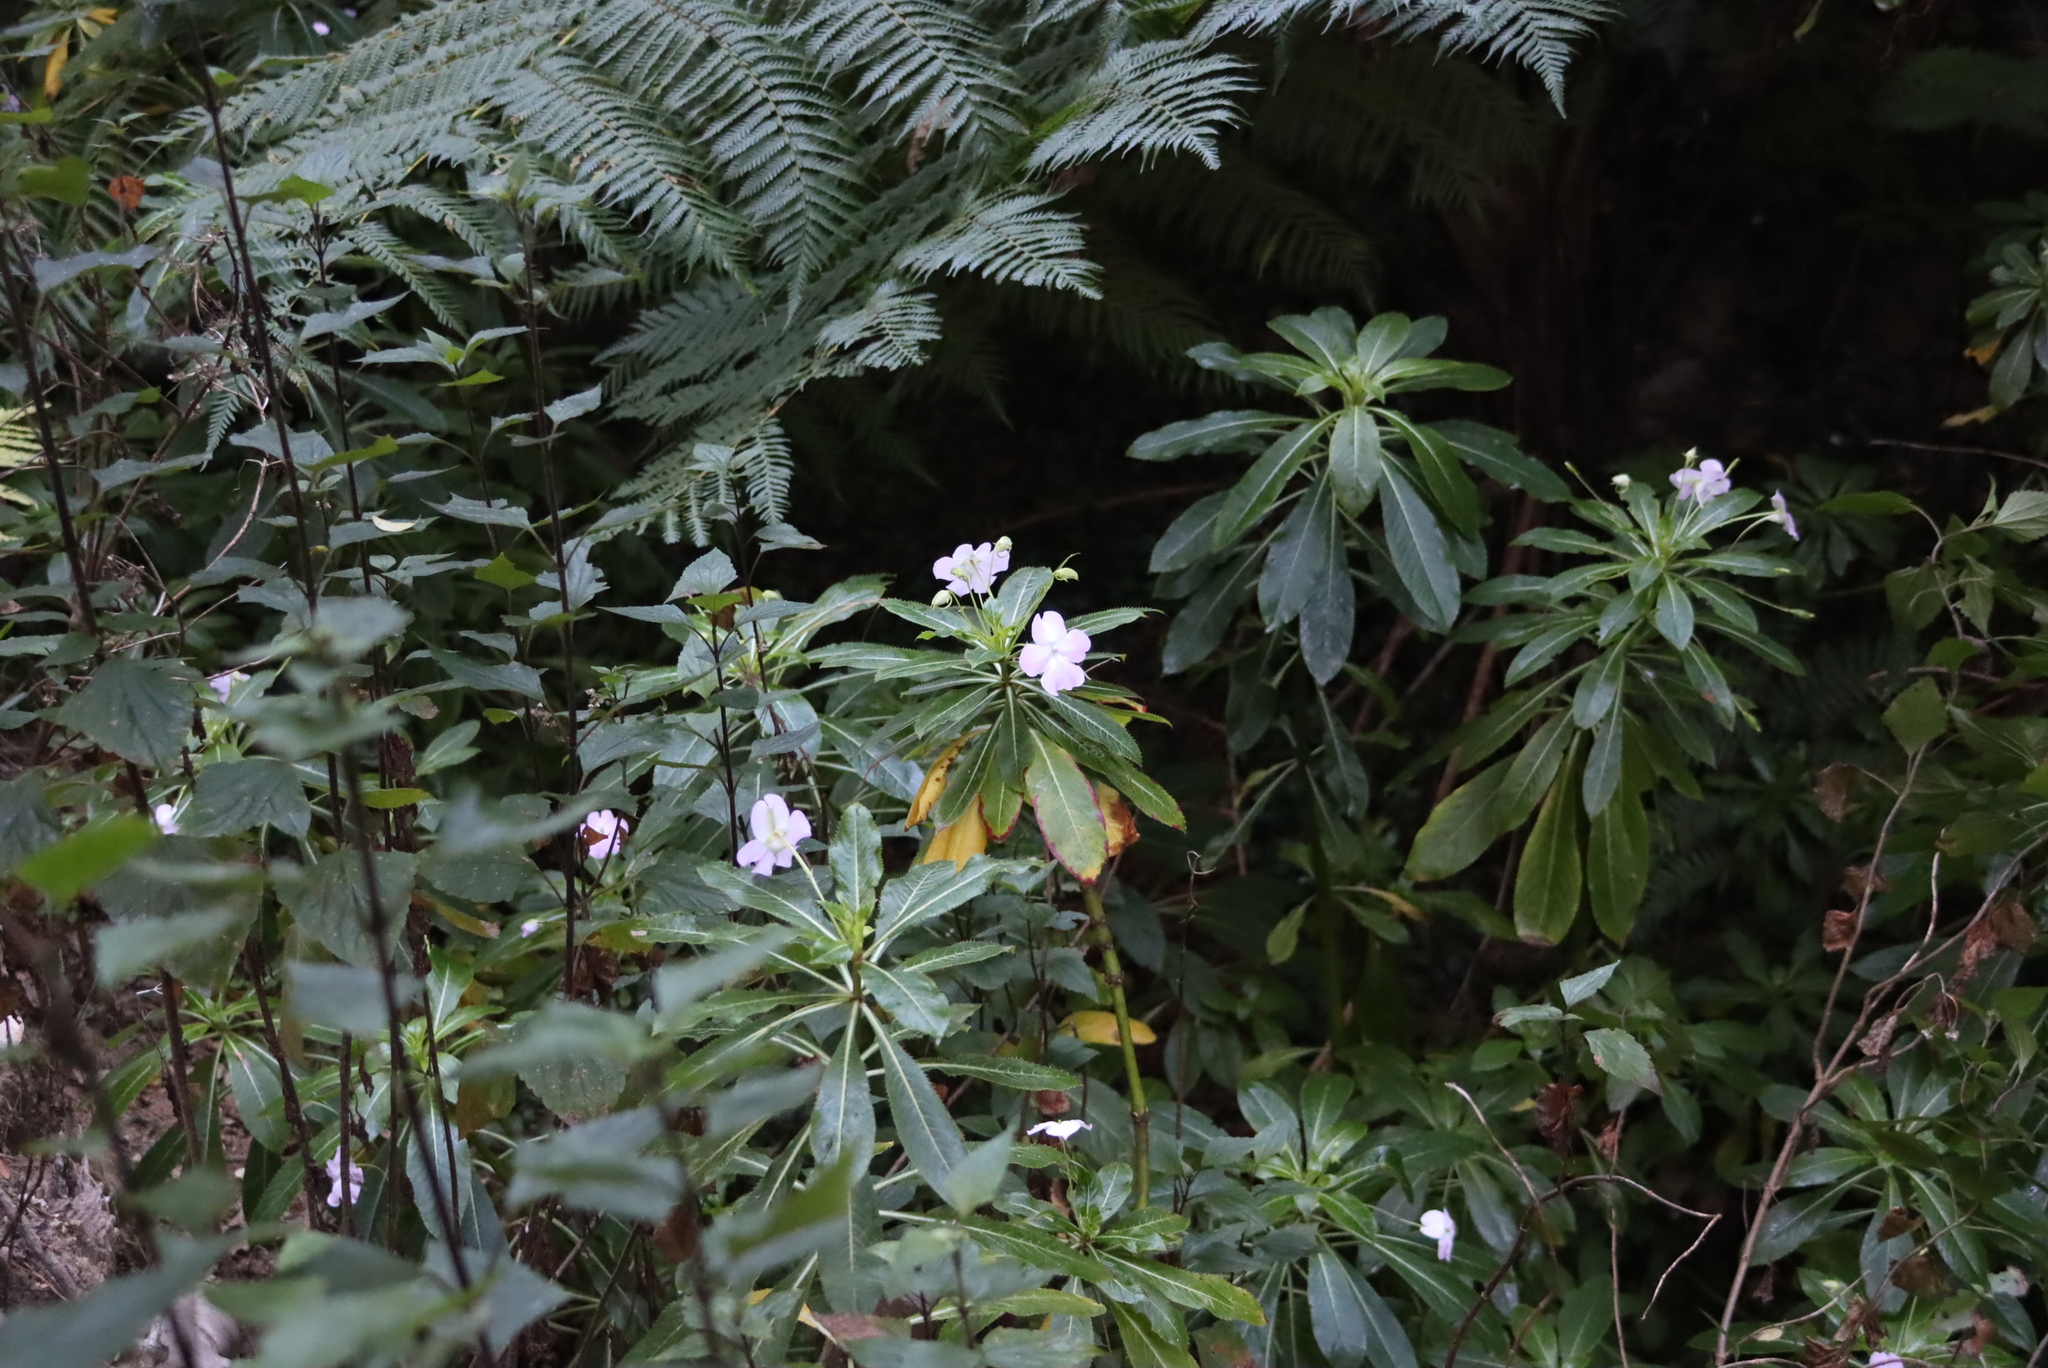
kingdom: Plantae
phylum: Tracheophyta
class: Magnoliopsida
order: Ericales
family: Balsaminaceae
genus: Impatiens
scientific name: Impatiens sodenii
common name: Oliver's touch-me-not
